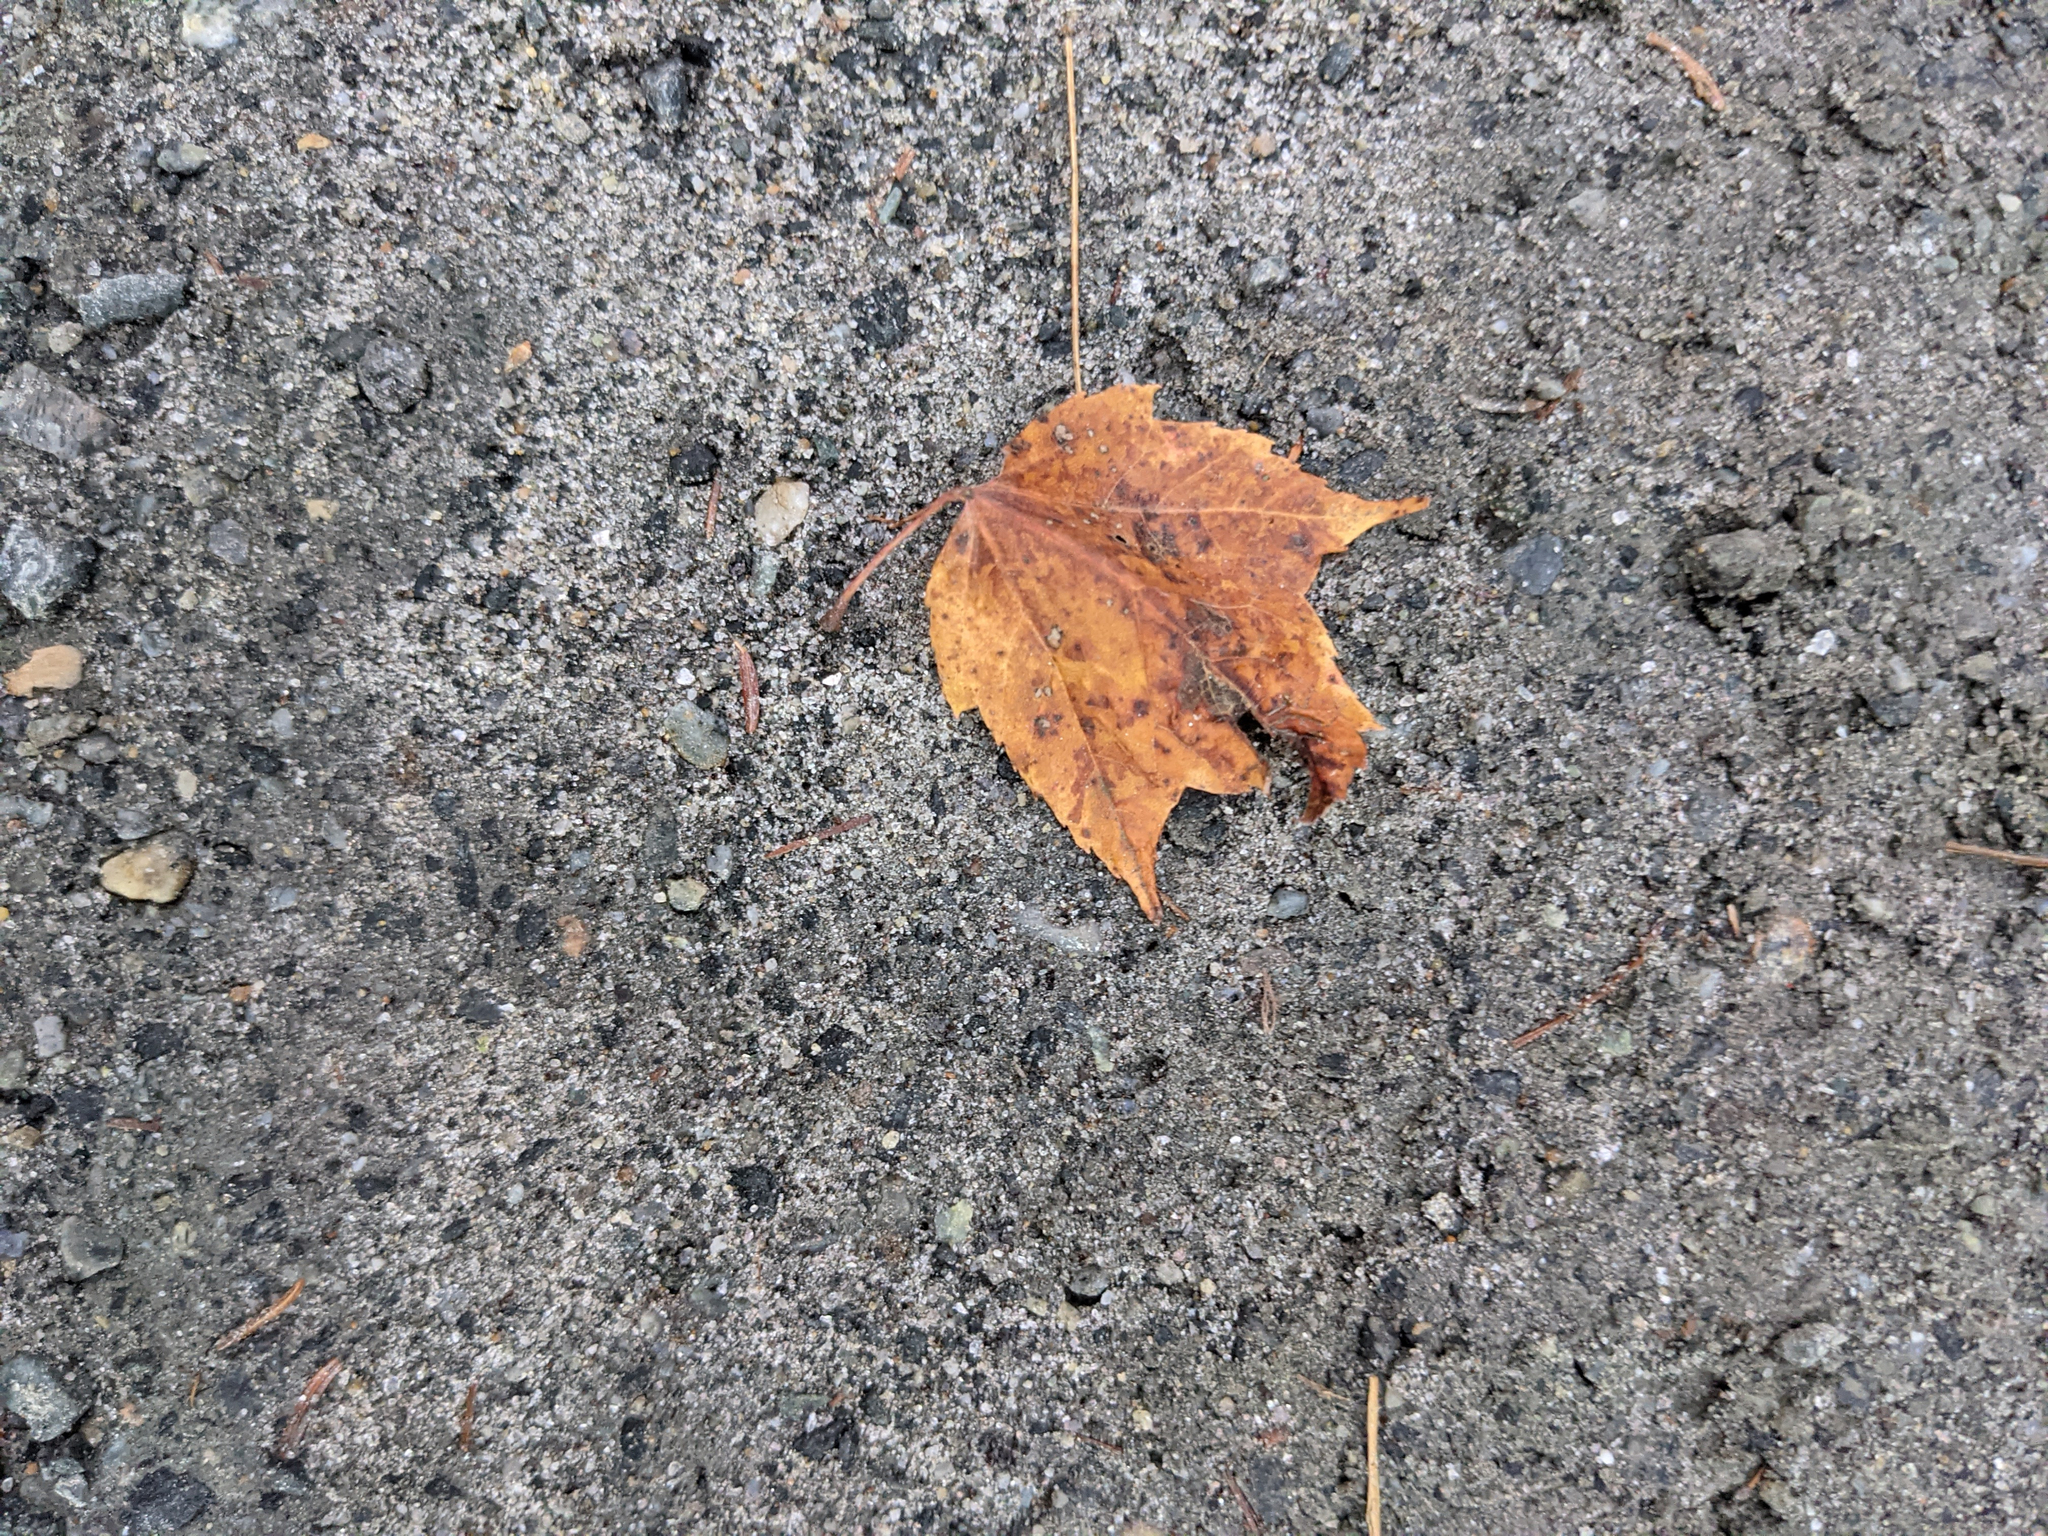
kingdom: Plantae
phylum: Tracheophyta
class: Magnoliopsida
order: Sapindales
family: Sapindaceae
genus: Acer
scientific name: Acer rubrum
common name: Red maple
